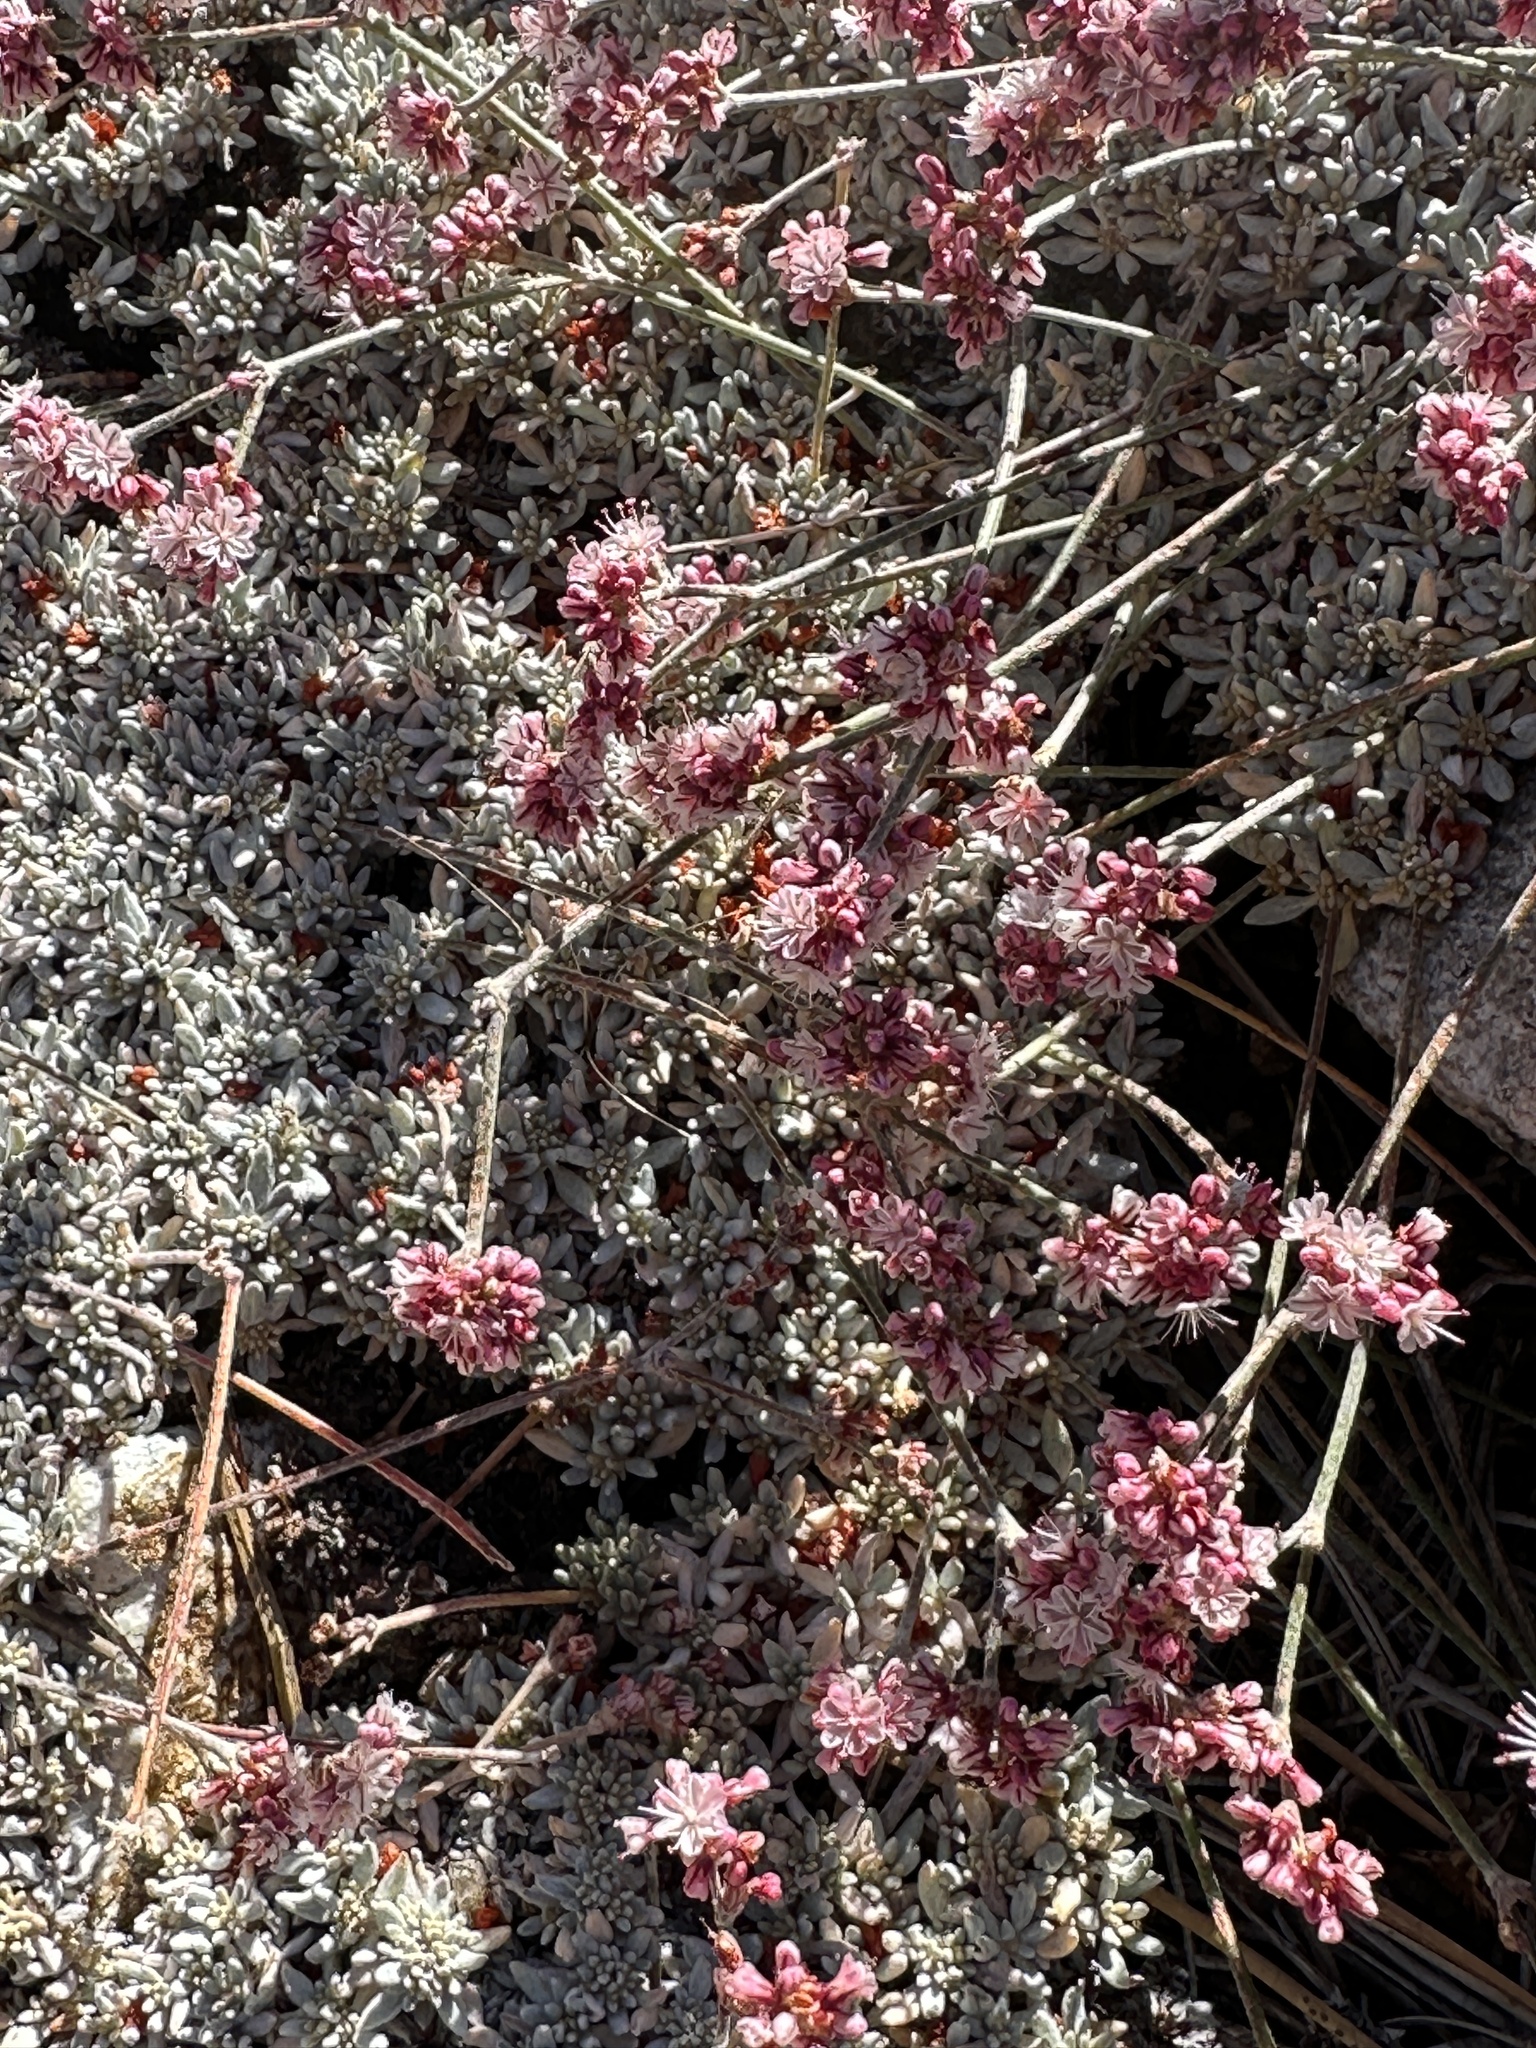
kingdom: Plantae
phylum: Tracheophyta
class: Magnoliopsida
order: Caryophyllales
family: Polygonaceae
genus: Eriogonum
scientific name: Eriogonum wrightii
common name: Bastard-sage
